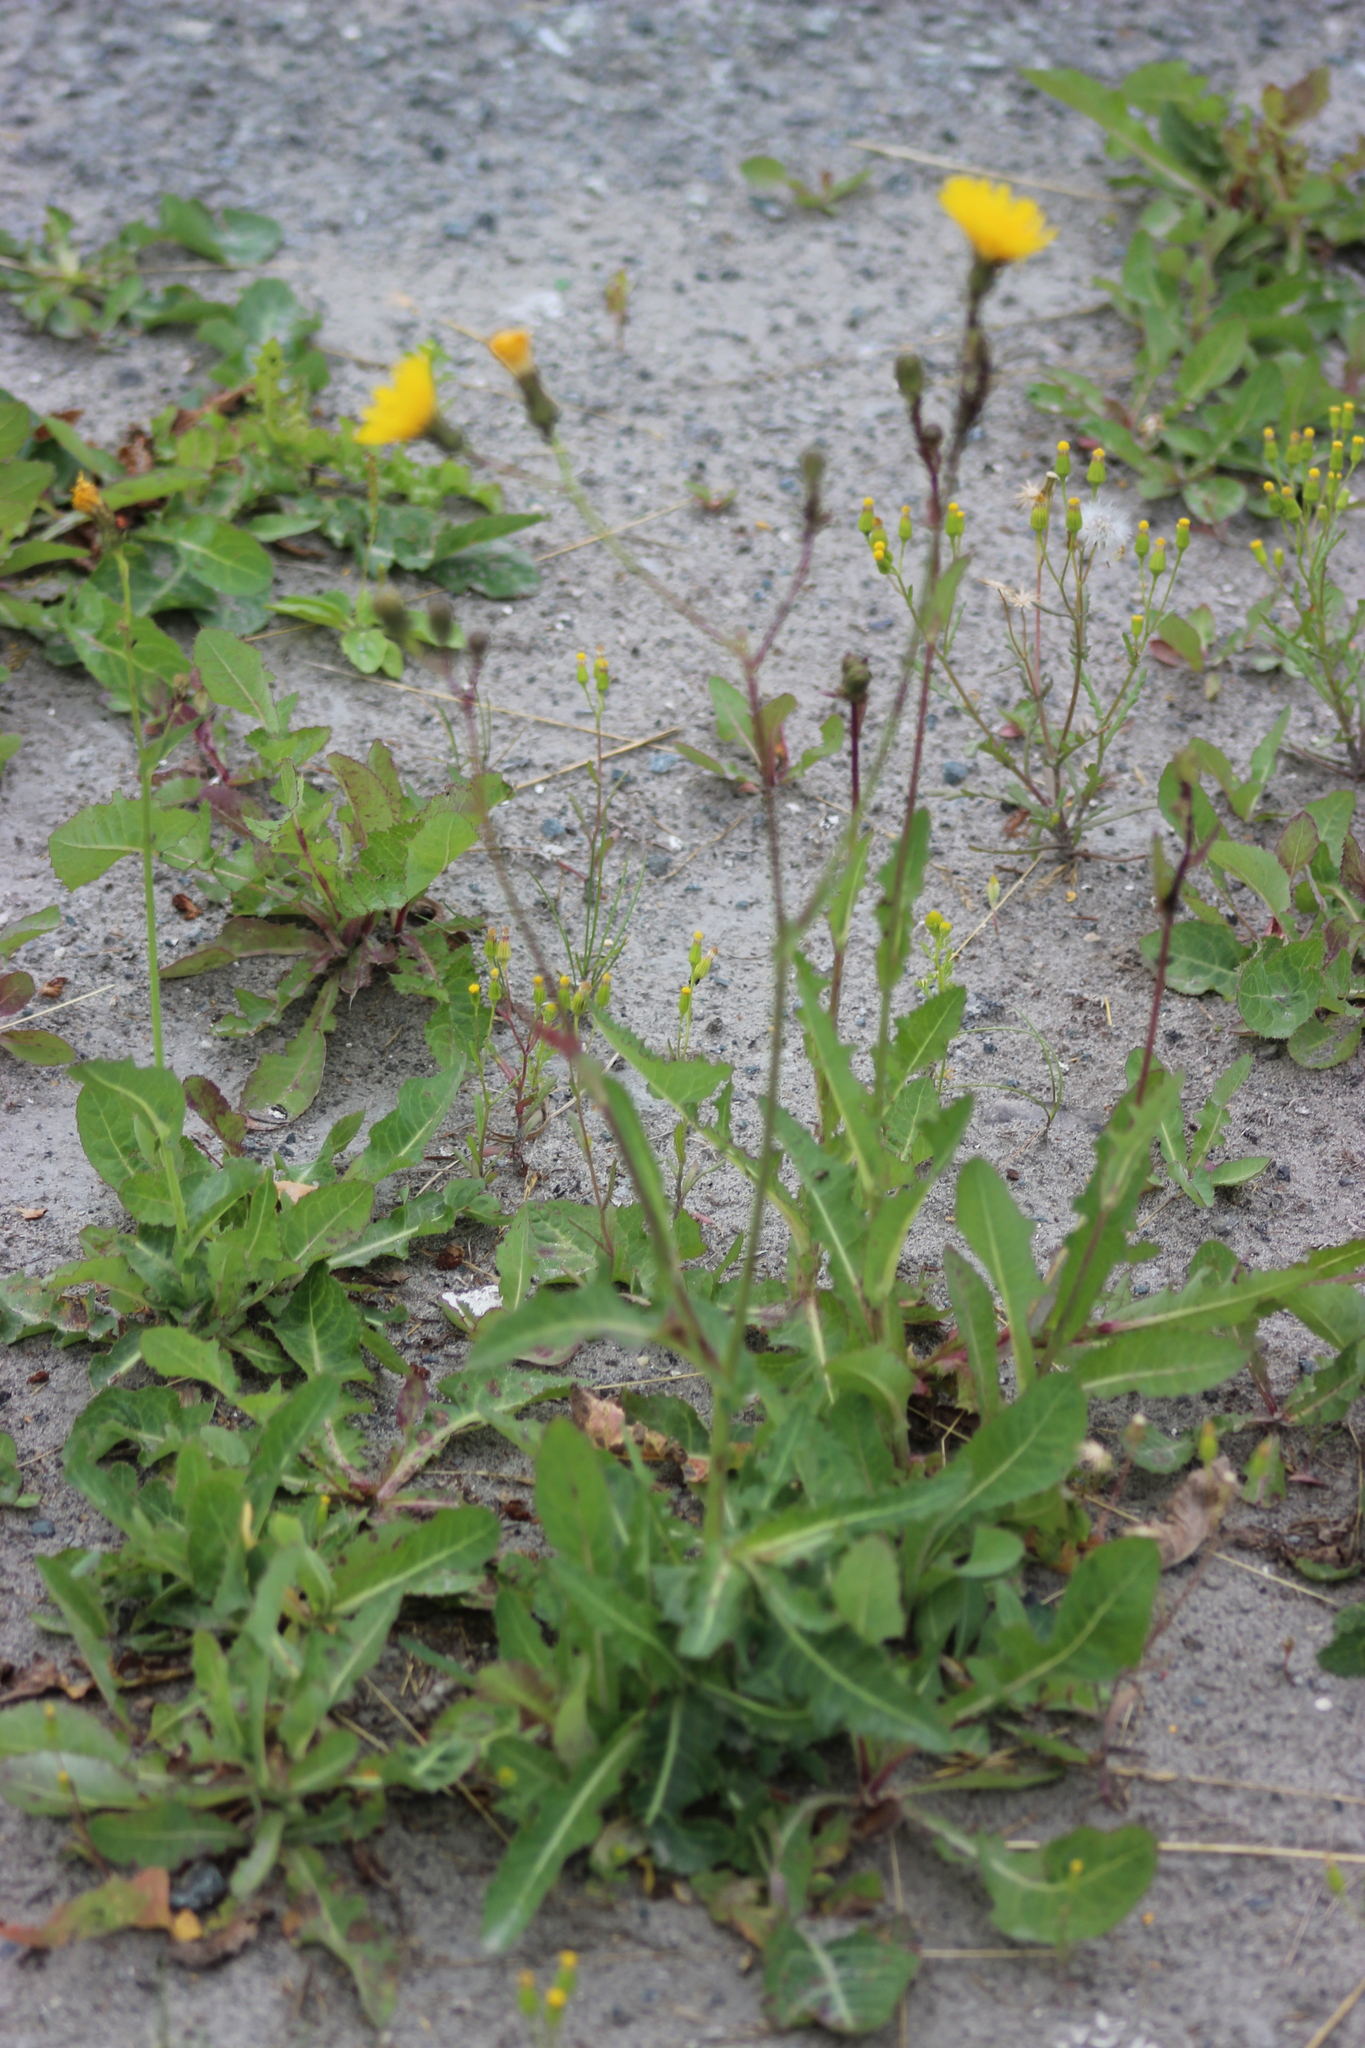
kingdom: Plantae
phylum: Tracheophyta
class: Magnoliopsida
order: Asterales
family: Asteraceae
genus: Sonchus
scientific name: Sonchus arvensis
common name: Perennial sow-thistle
